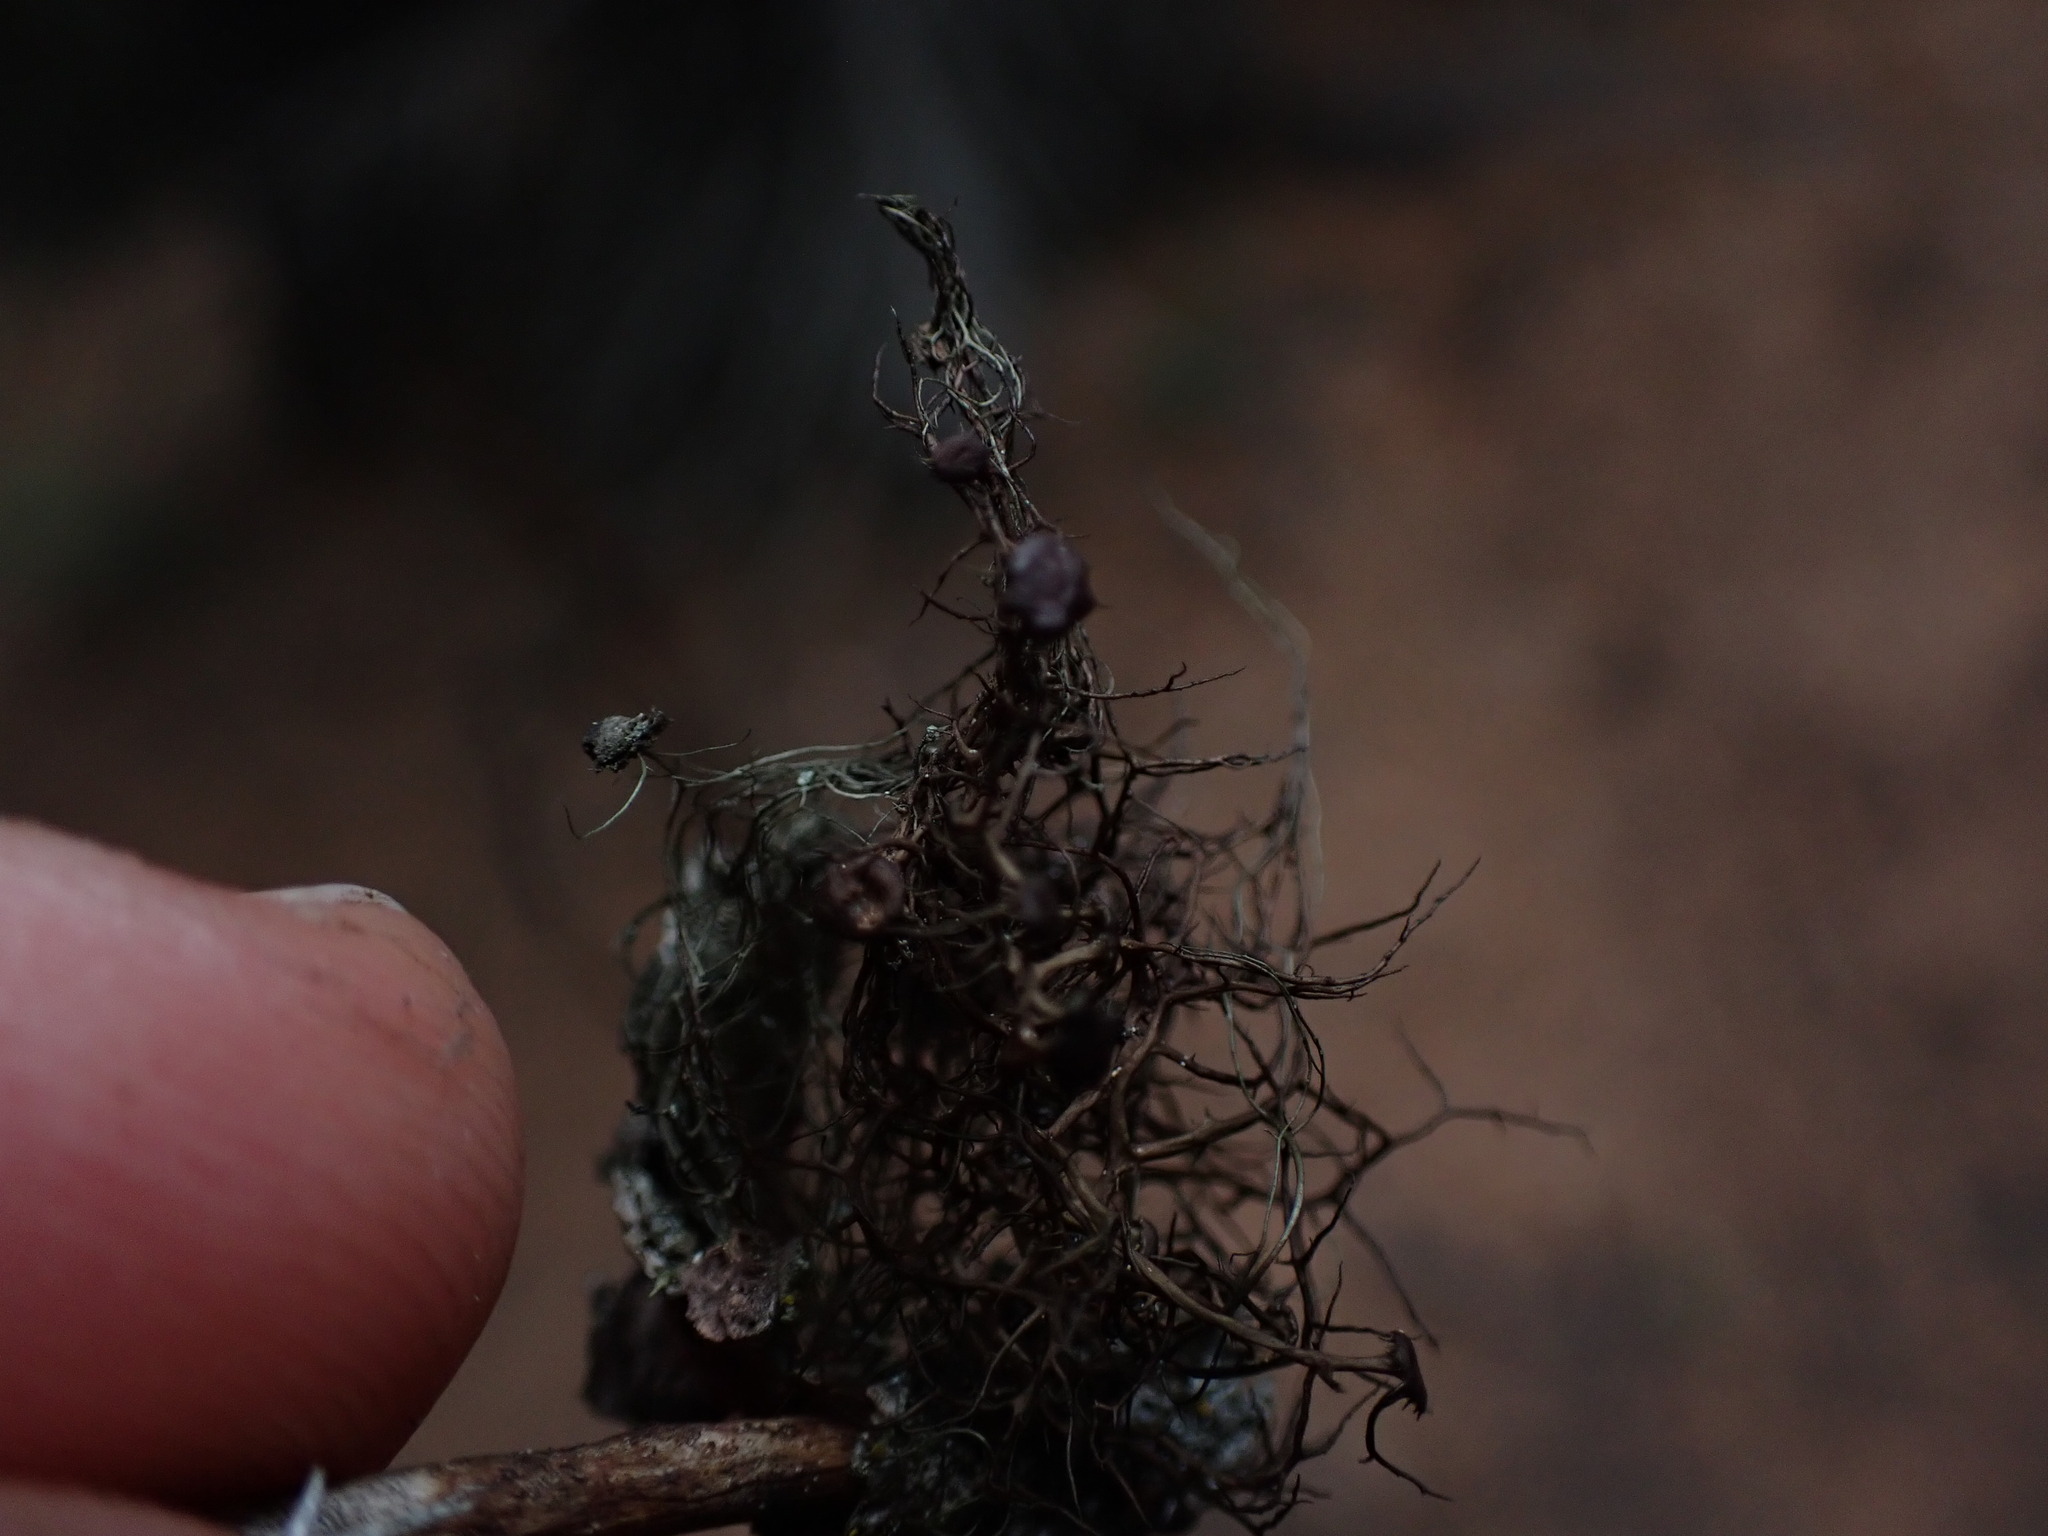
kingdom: Fungi
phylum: Ascomycota
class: Lecanoromycetes
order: Lecanorales
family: Parmeliaceae
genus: Nodobryoria
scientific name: Nodobryoria abbreviata
